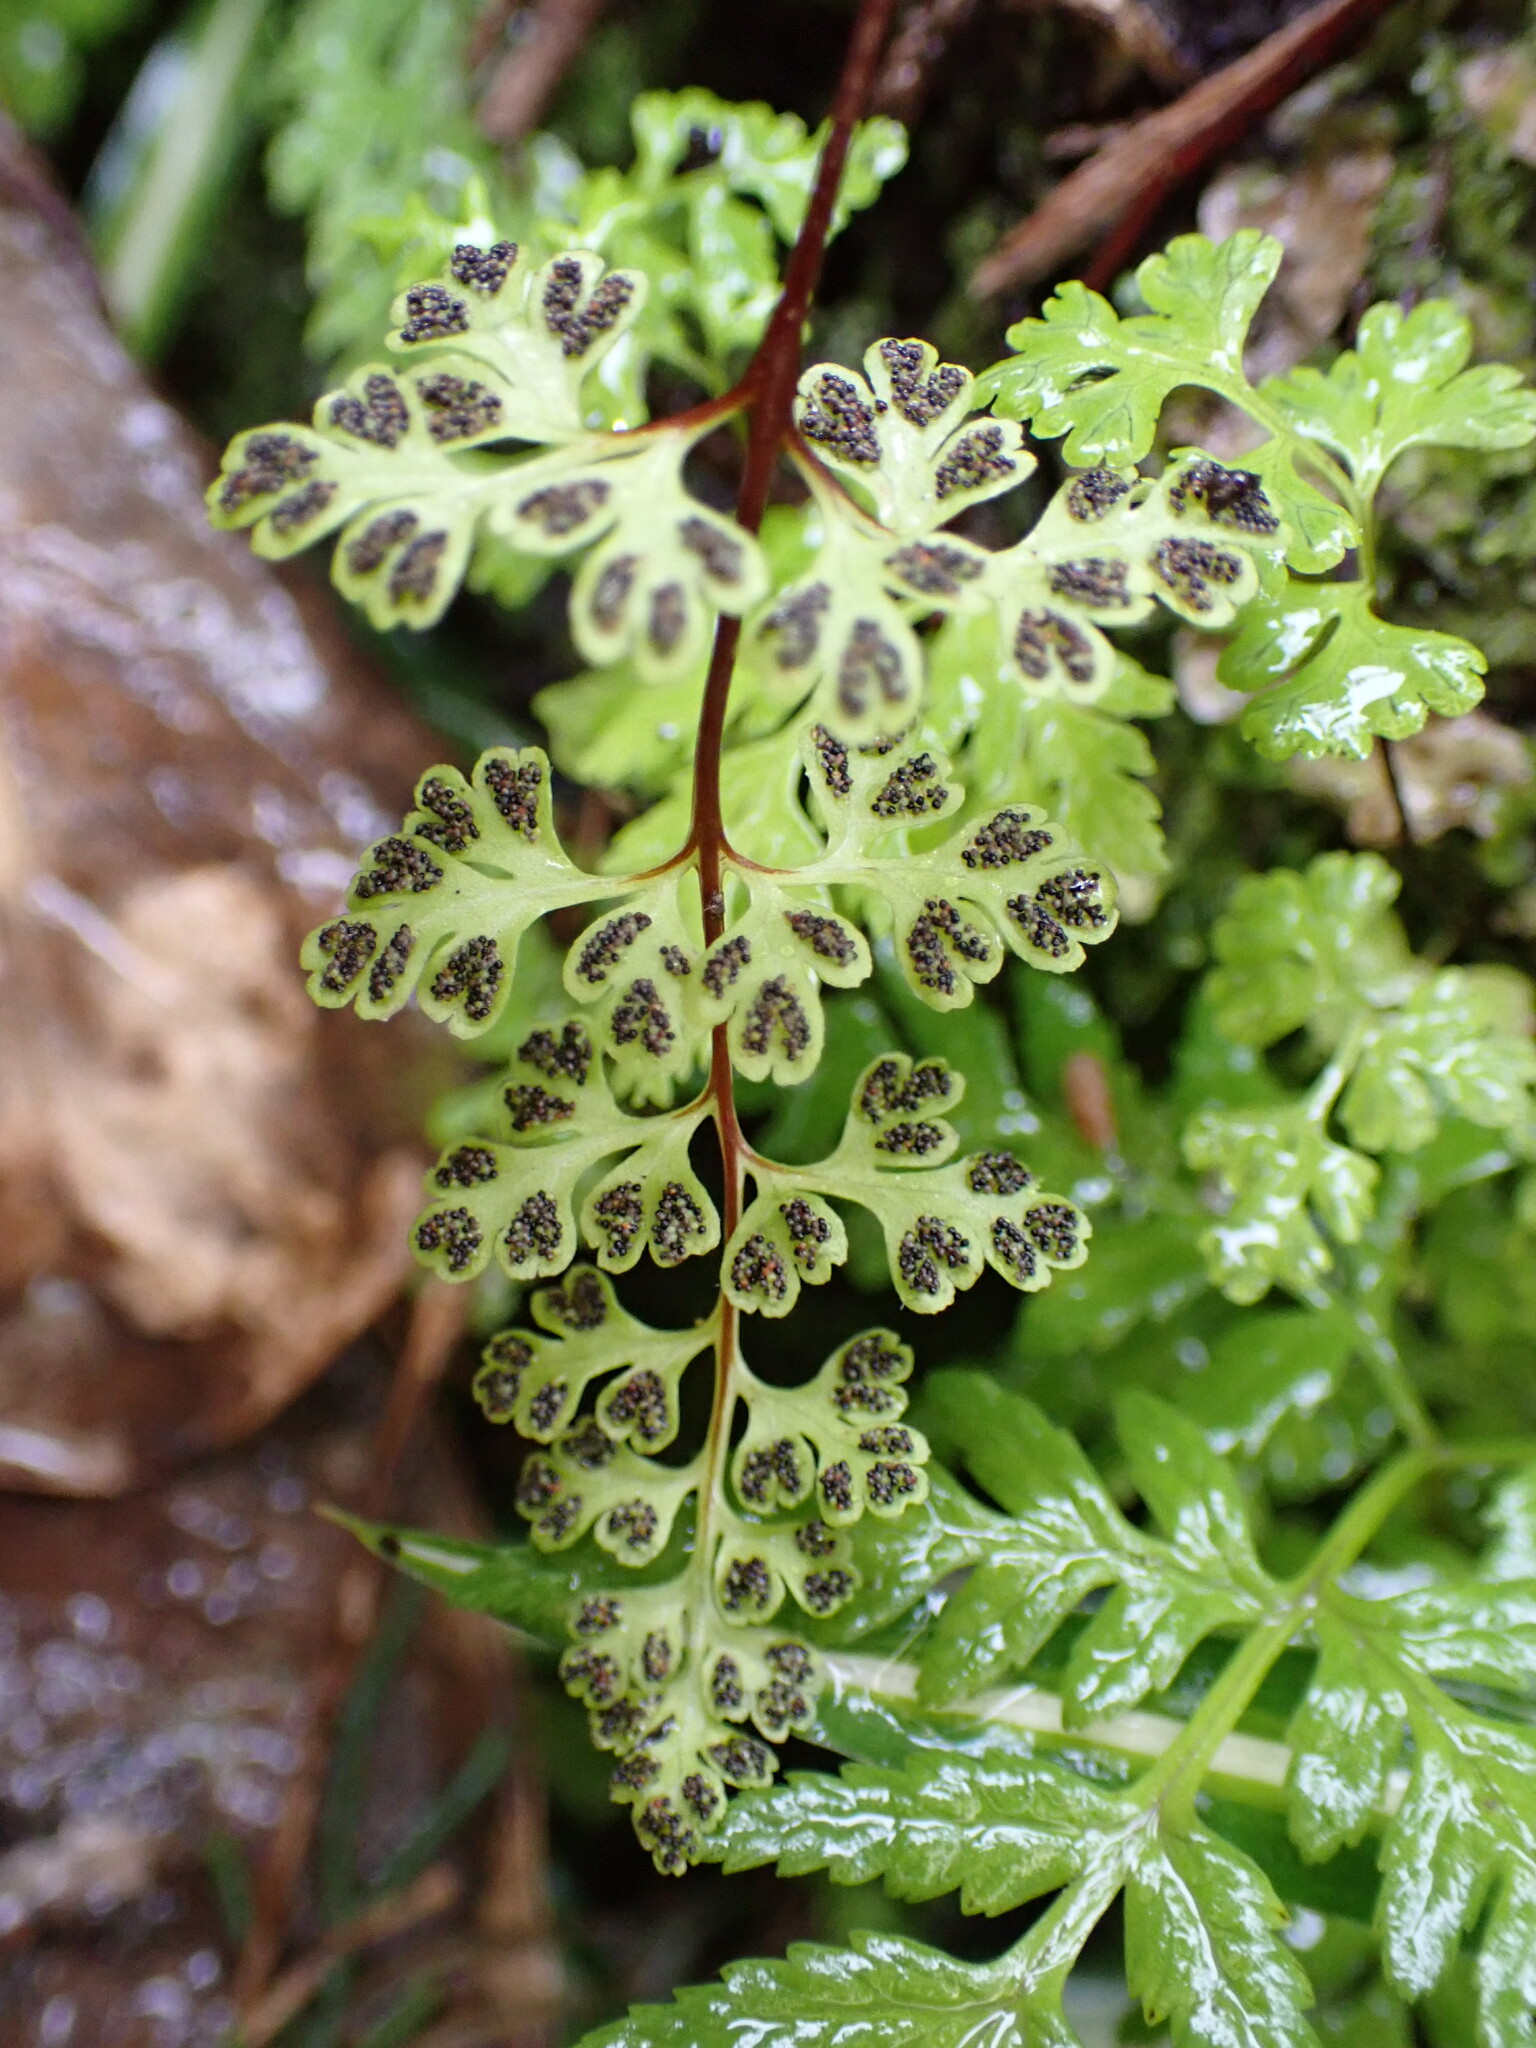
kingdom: Plantae
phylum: Tracheophyta
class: Polypodiopsida
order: Polypodiales
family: Pteridaceae
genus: Anogramma
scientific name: Anogramma leptophylla
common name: Jersey fern
